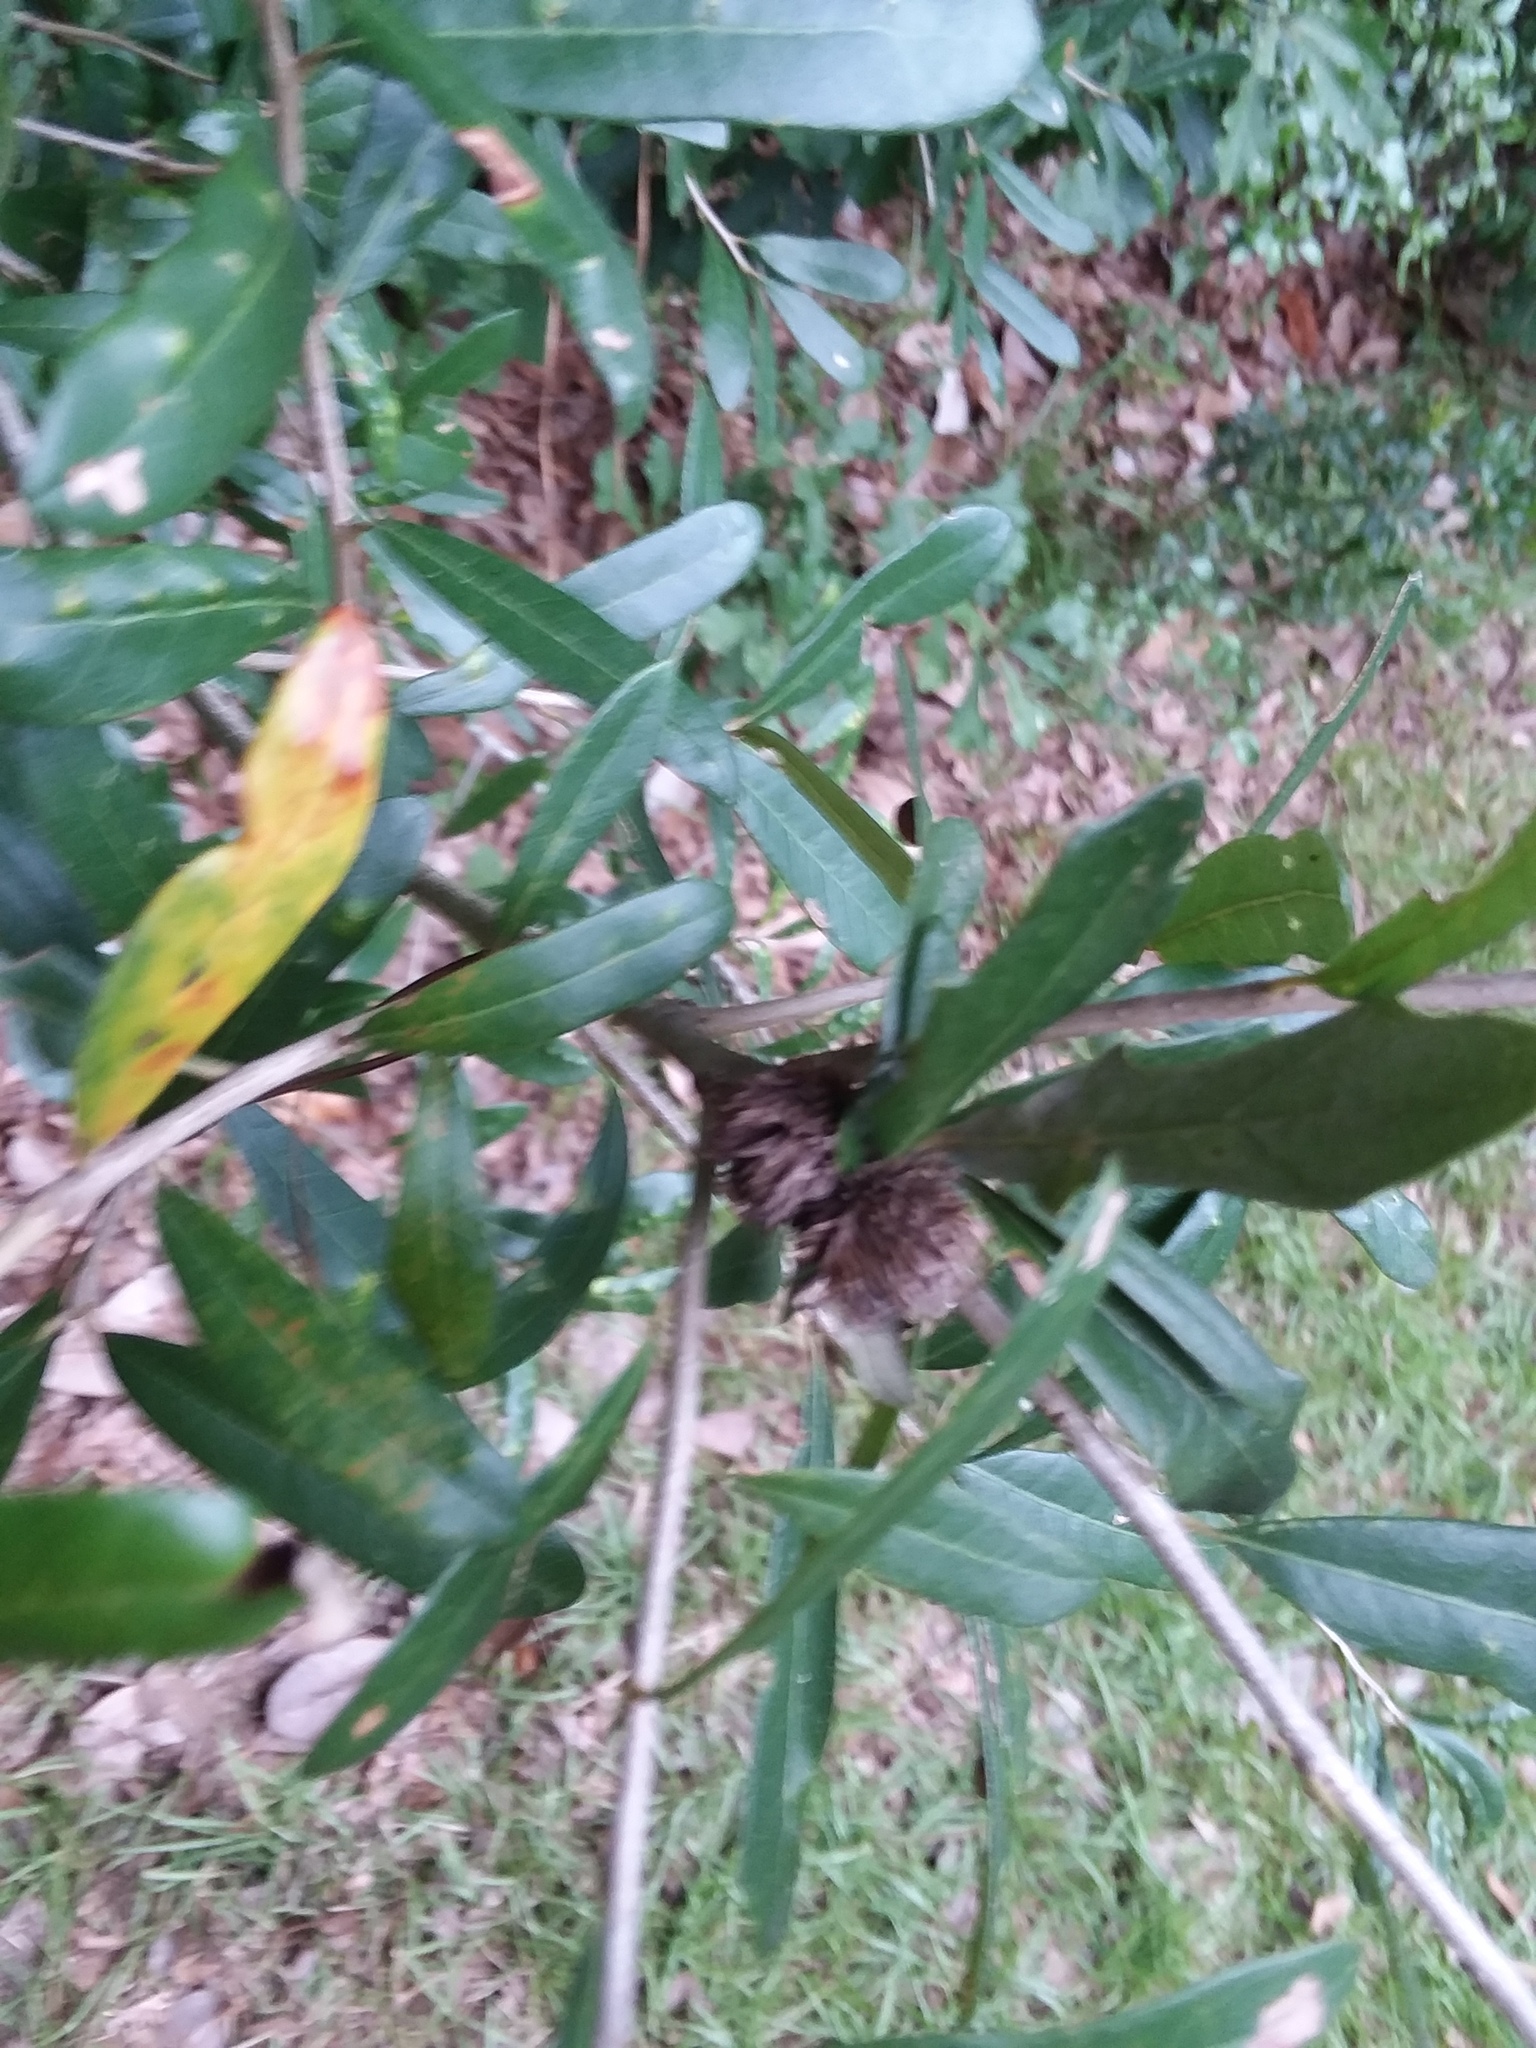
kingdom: Animalia
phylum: Arthropoda
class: Insecta
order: Hymenoptera
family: Cynipidae
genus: Andricus
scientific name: Andricus quercusfoliatus
